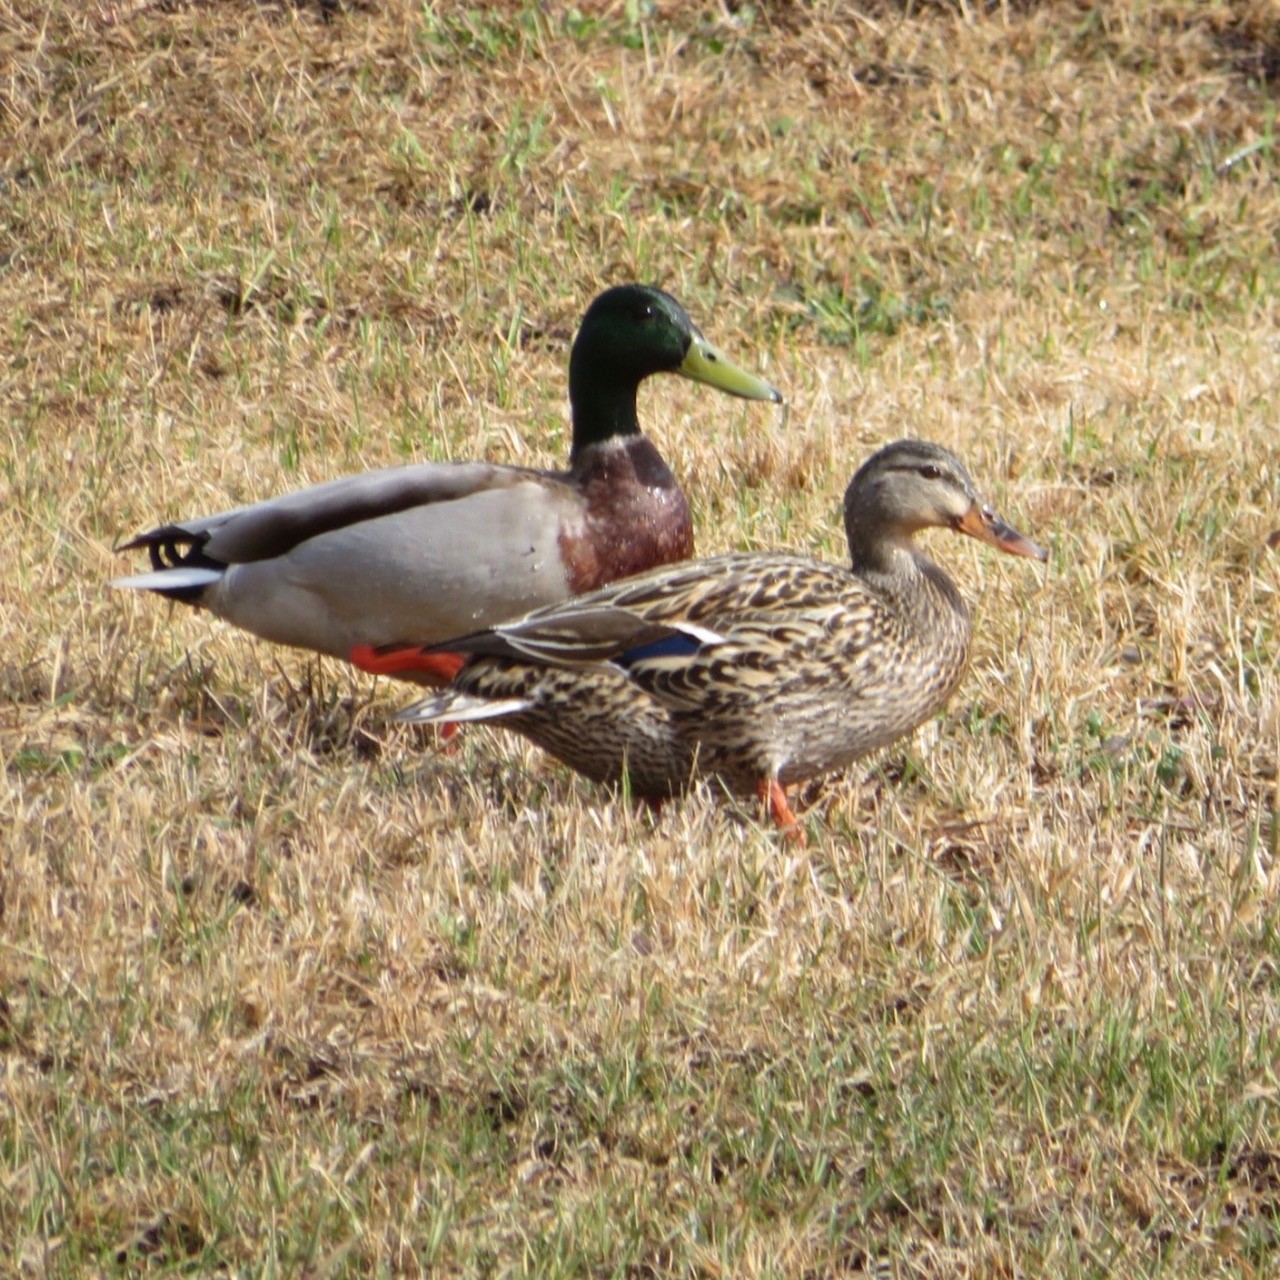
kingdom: Animalia
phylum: Chordata
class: Aves
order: Anseriformes
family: Anatidae
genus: Anas
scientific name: Anas platyrhynchos
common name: Mallard
